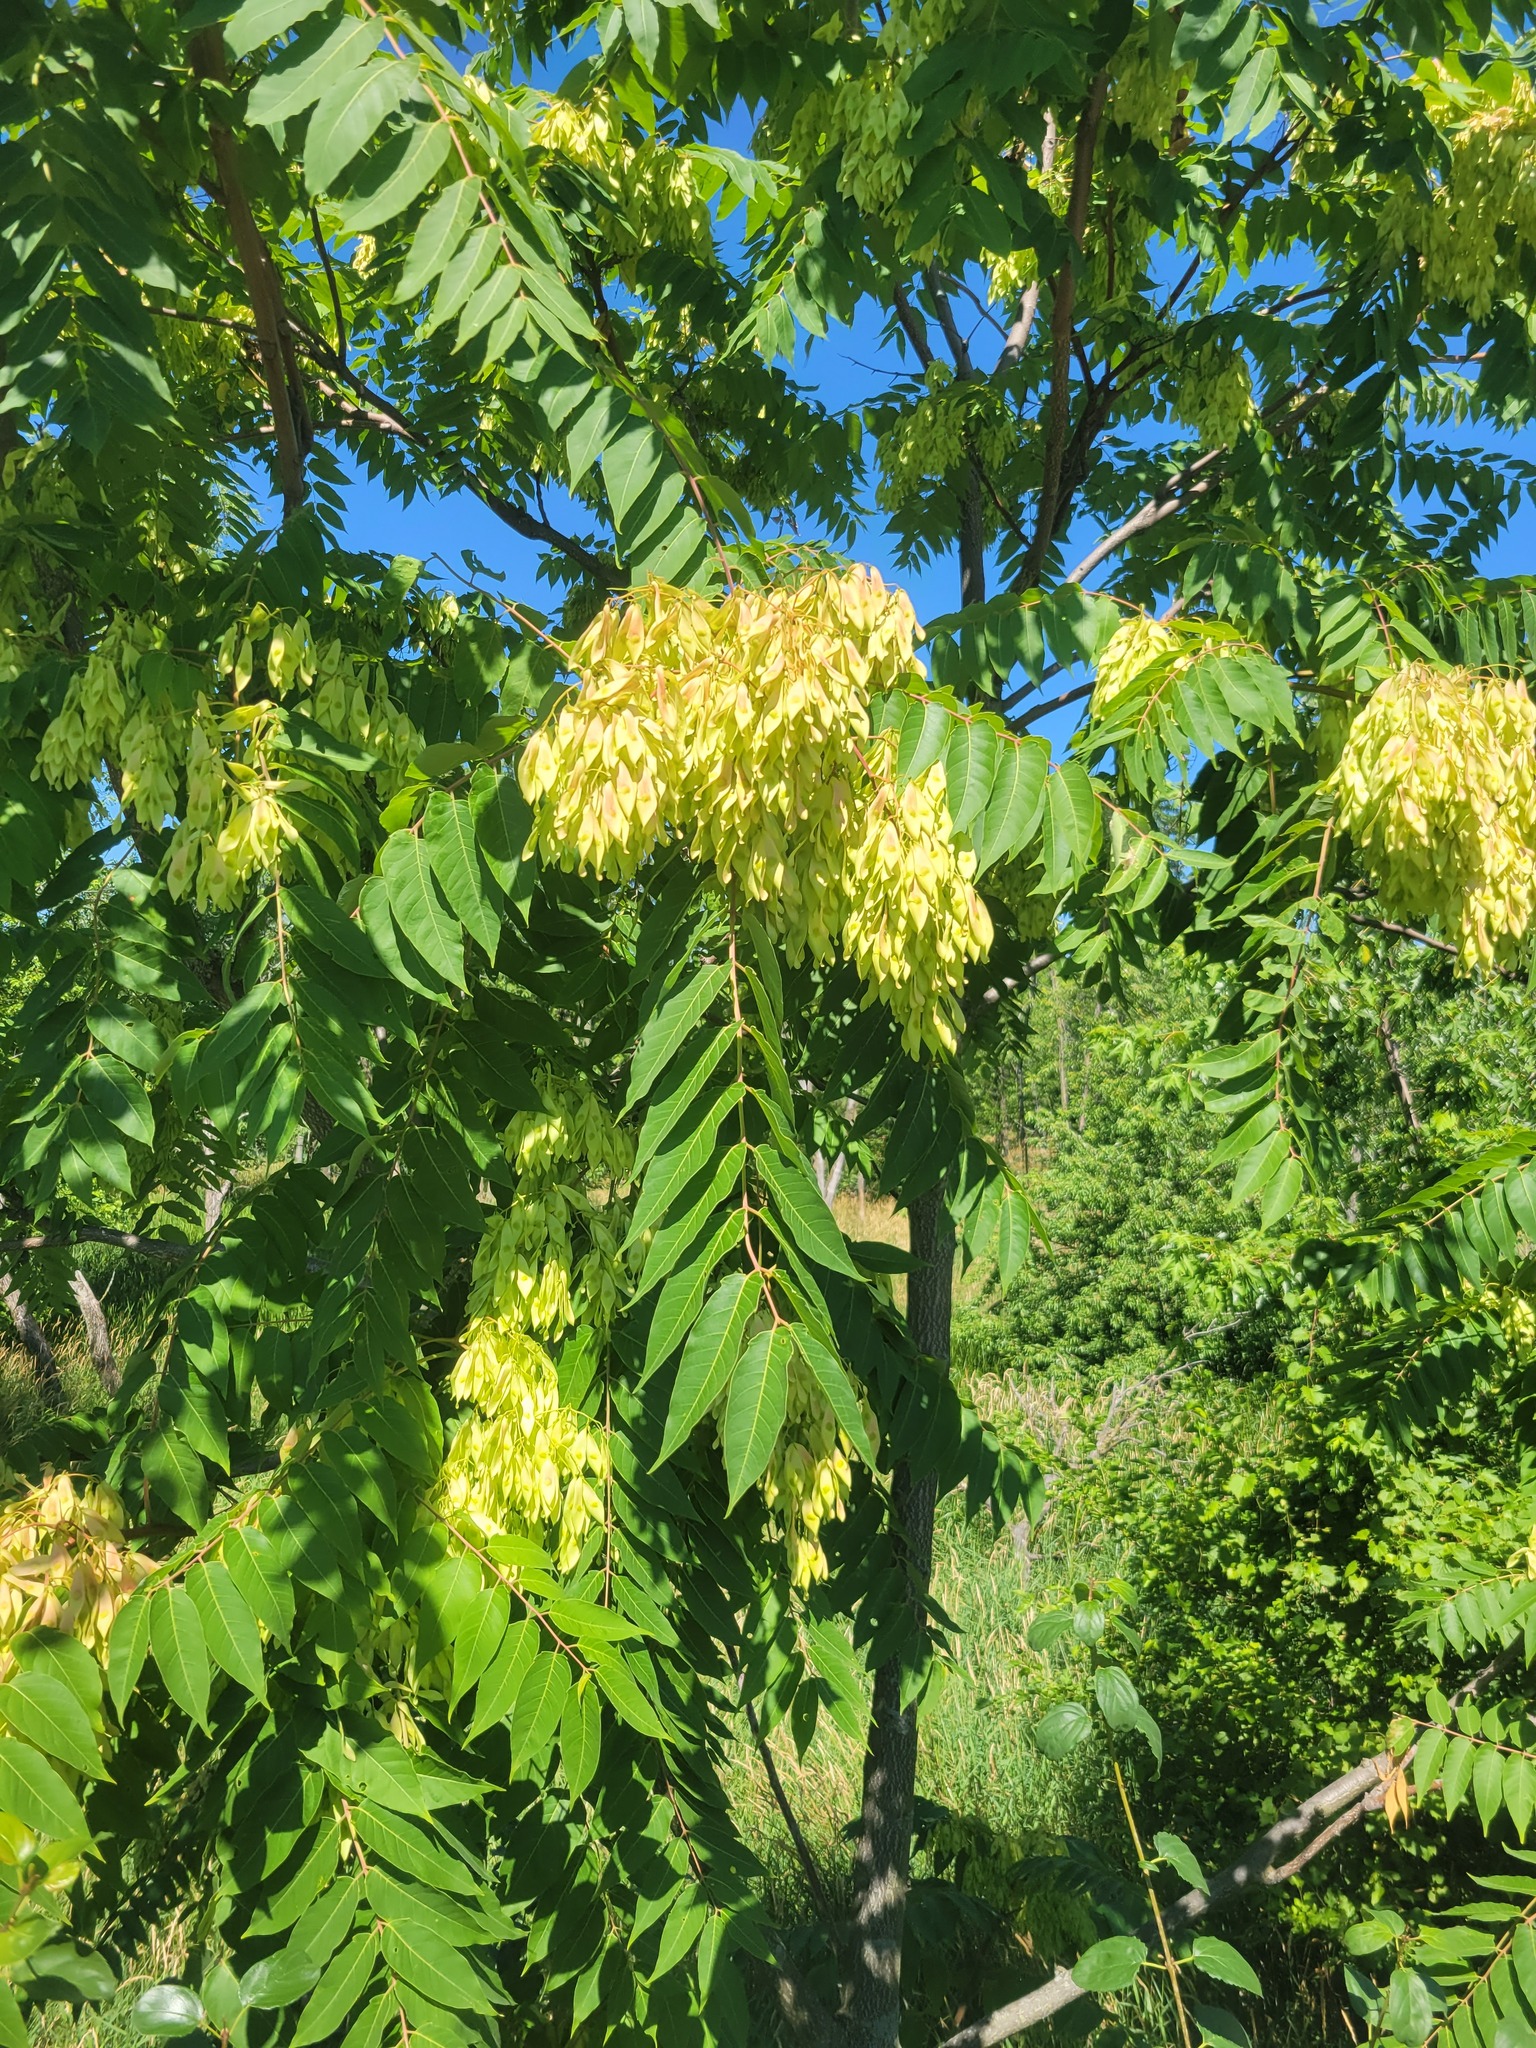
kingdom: Plantae
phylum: Tracheophyta
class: Magnoliopsida
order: Sapindales
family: Simaroubaceae
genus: Ailanthus
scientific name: Ailanthus altissima
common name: Tree-of-heaven
